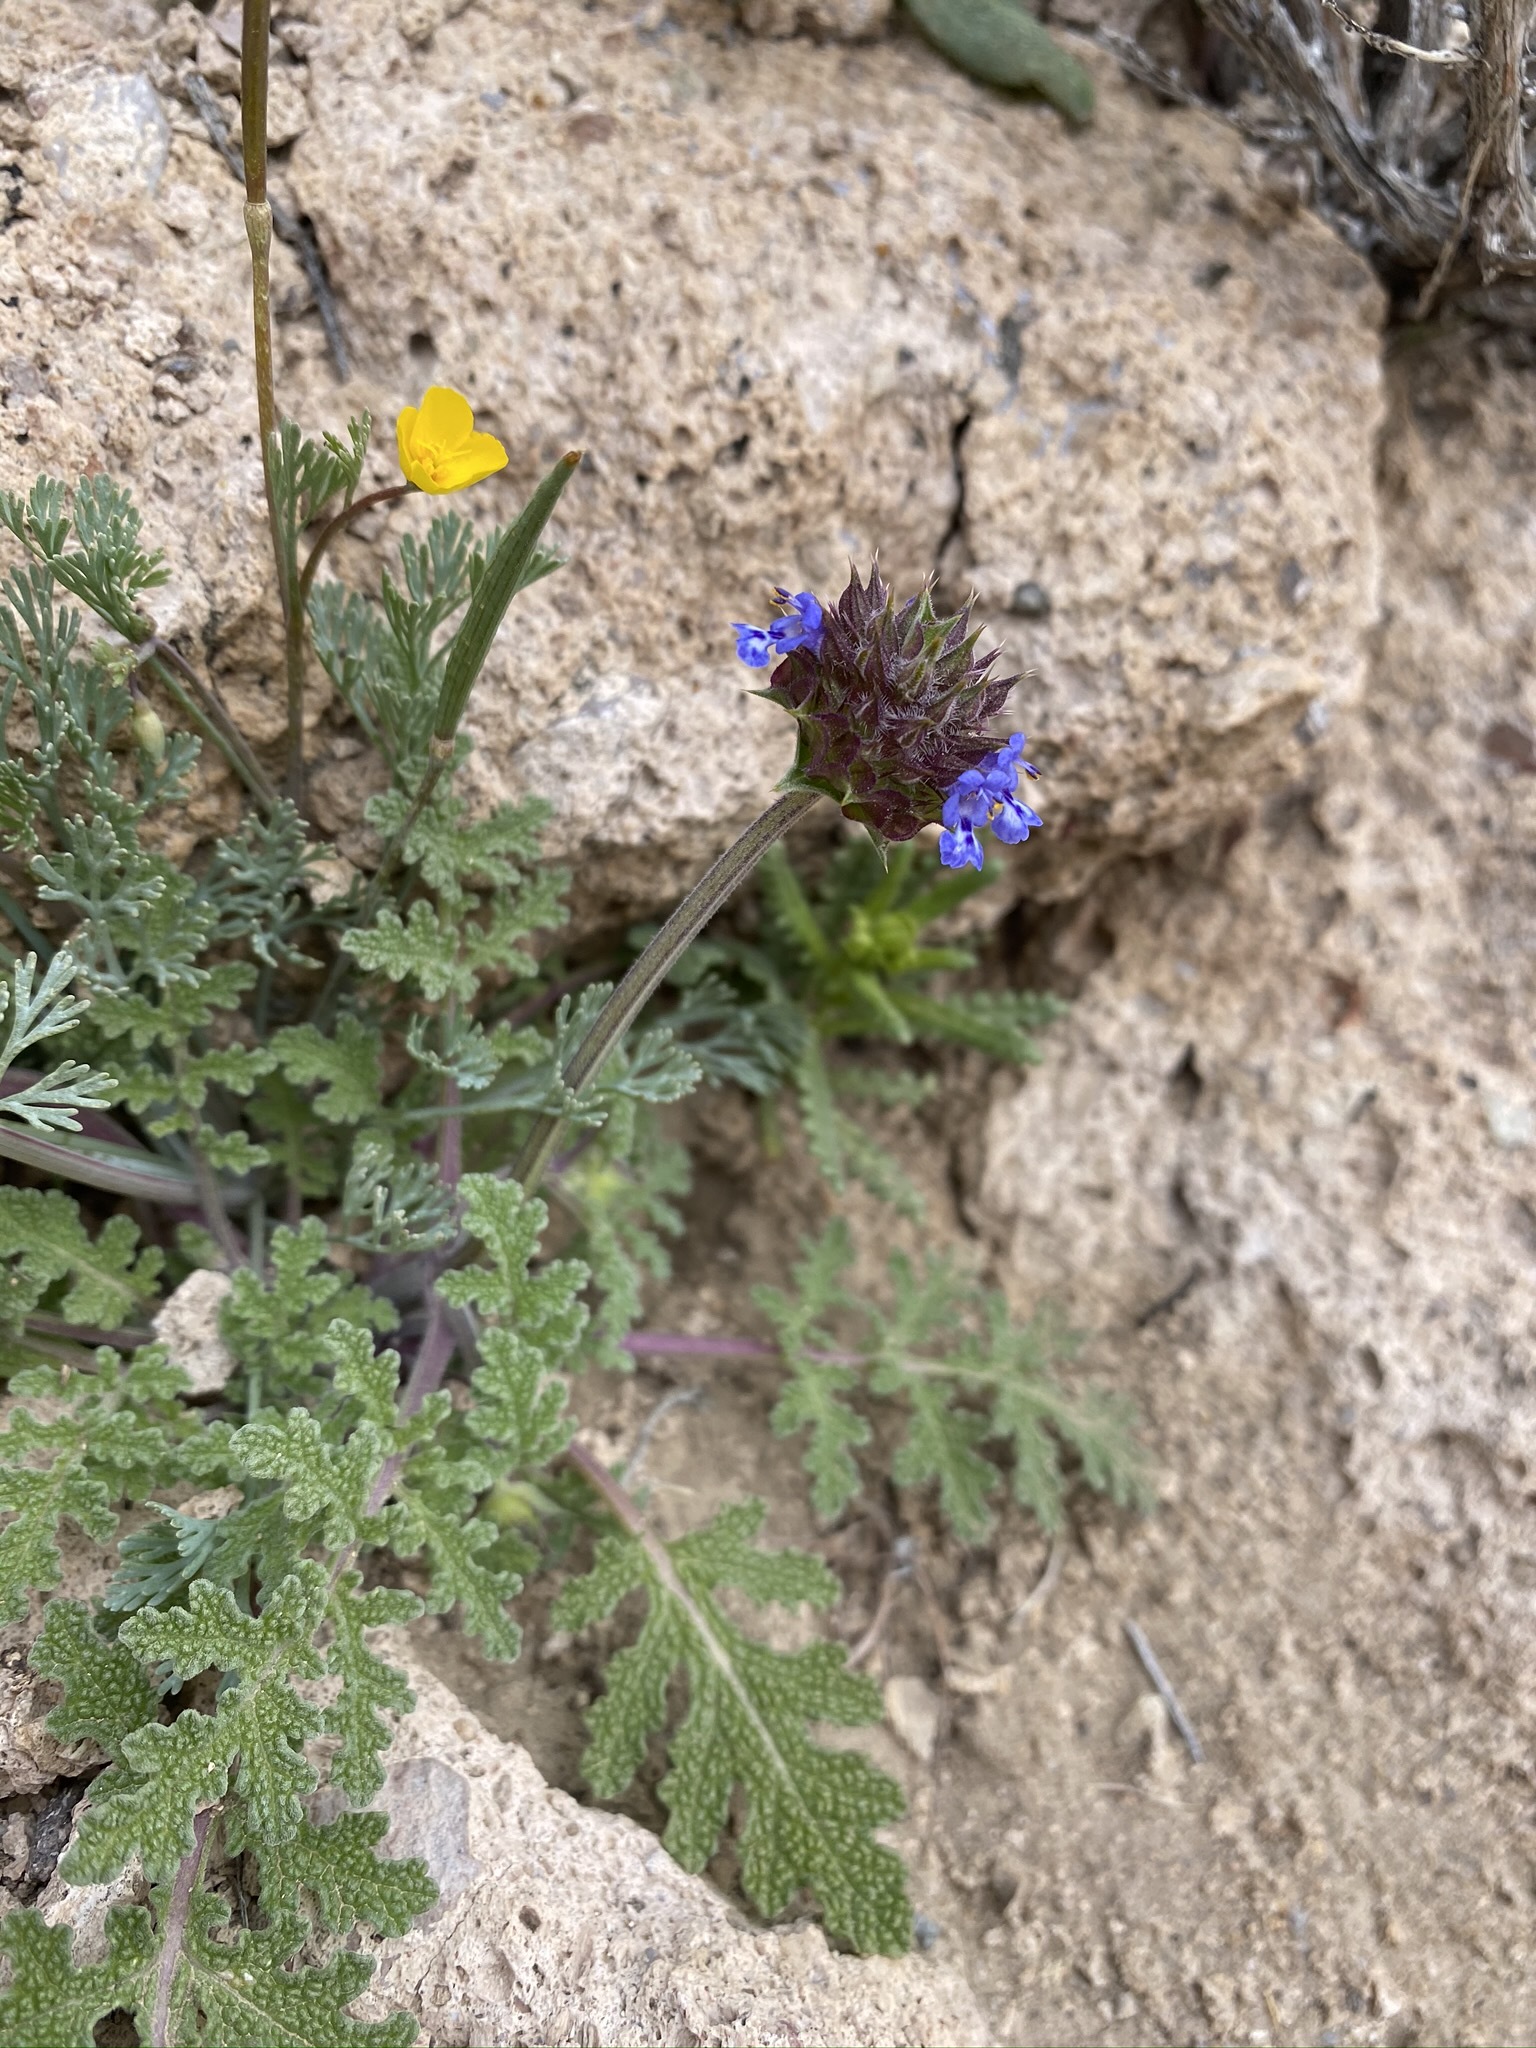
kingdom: Plantae
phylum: Tracheophyta
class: Magnoliopsida
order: Lamiales
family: Lamiaceae
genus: Salvia
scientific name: Salvia columbariae
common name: Chia
